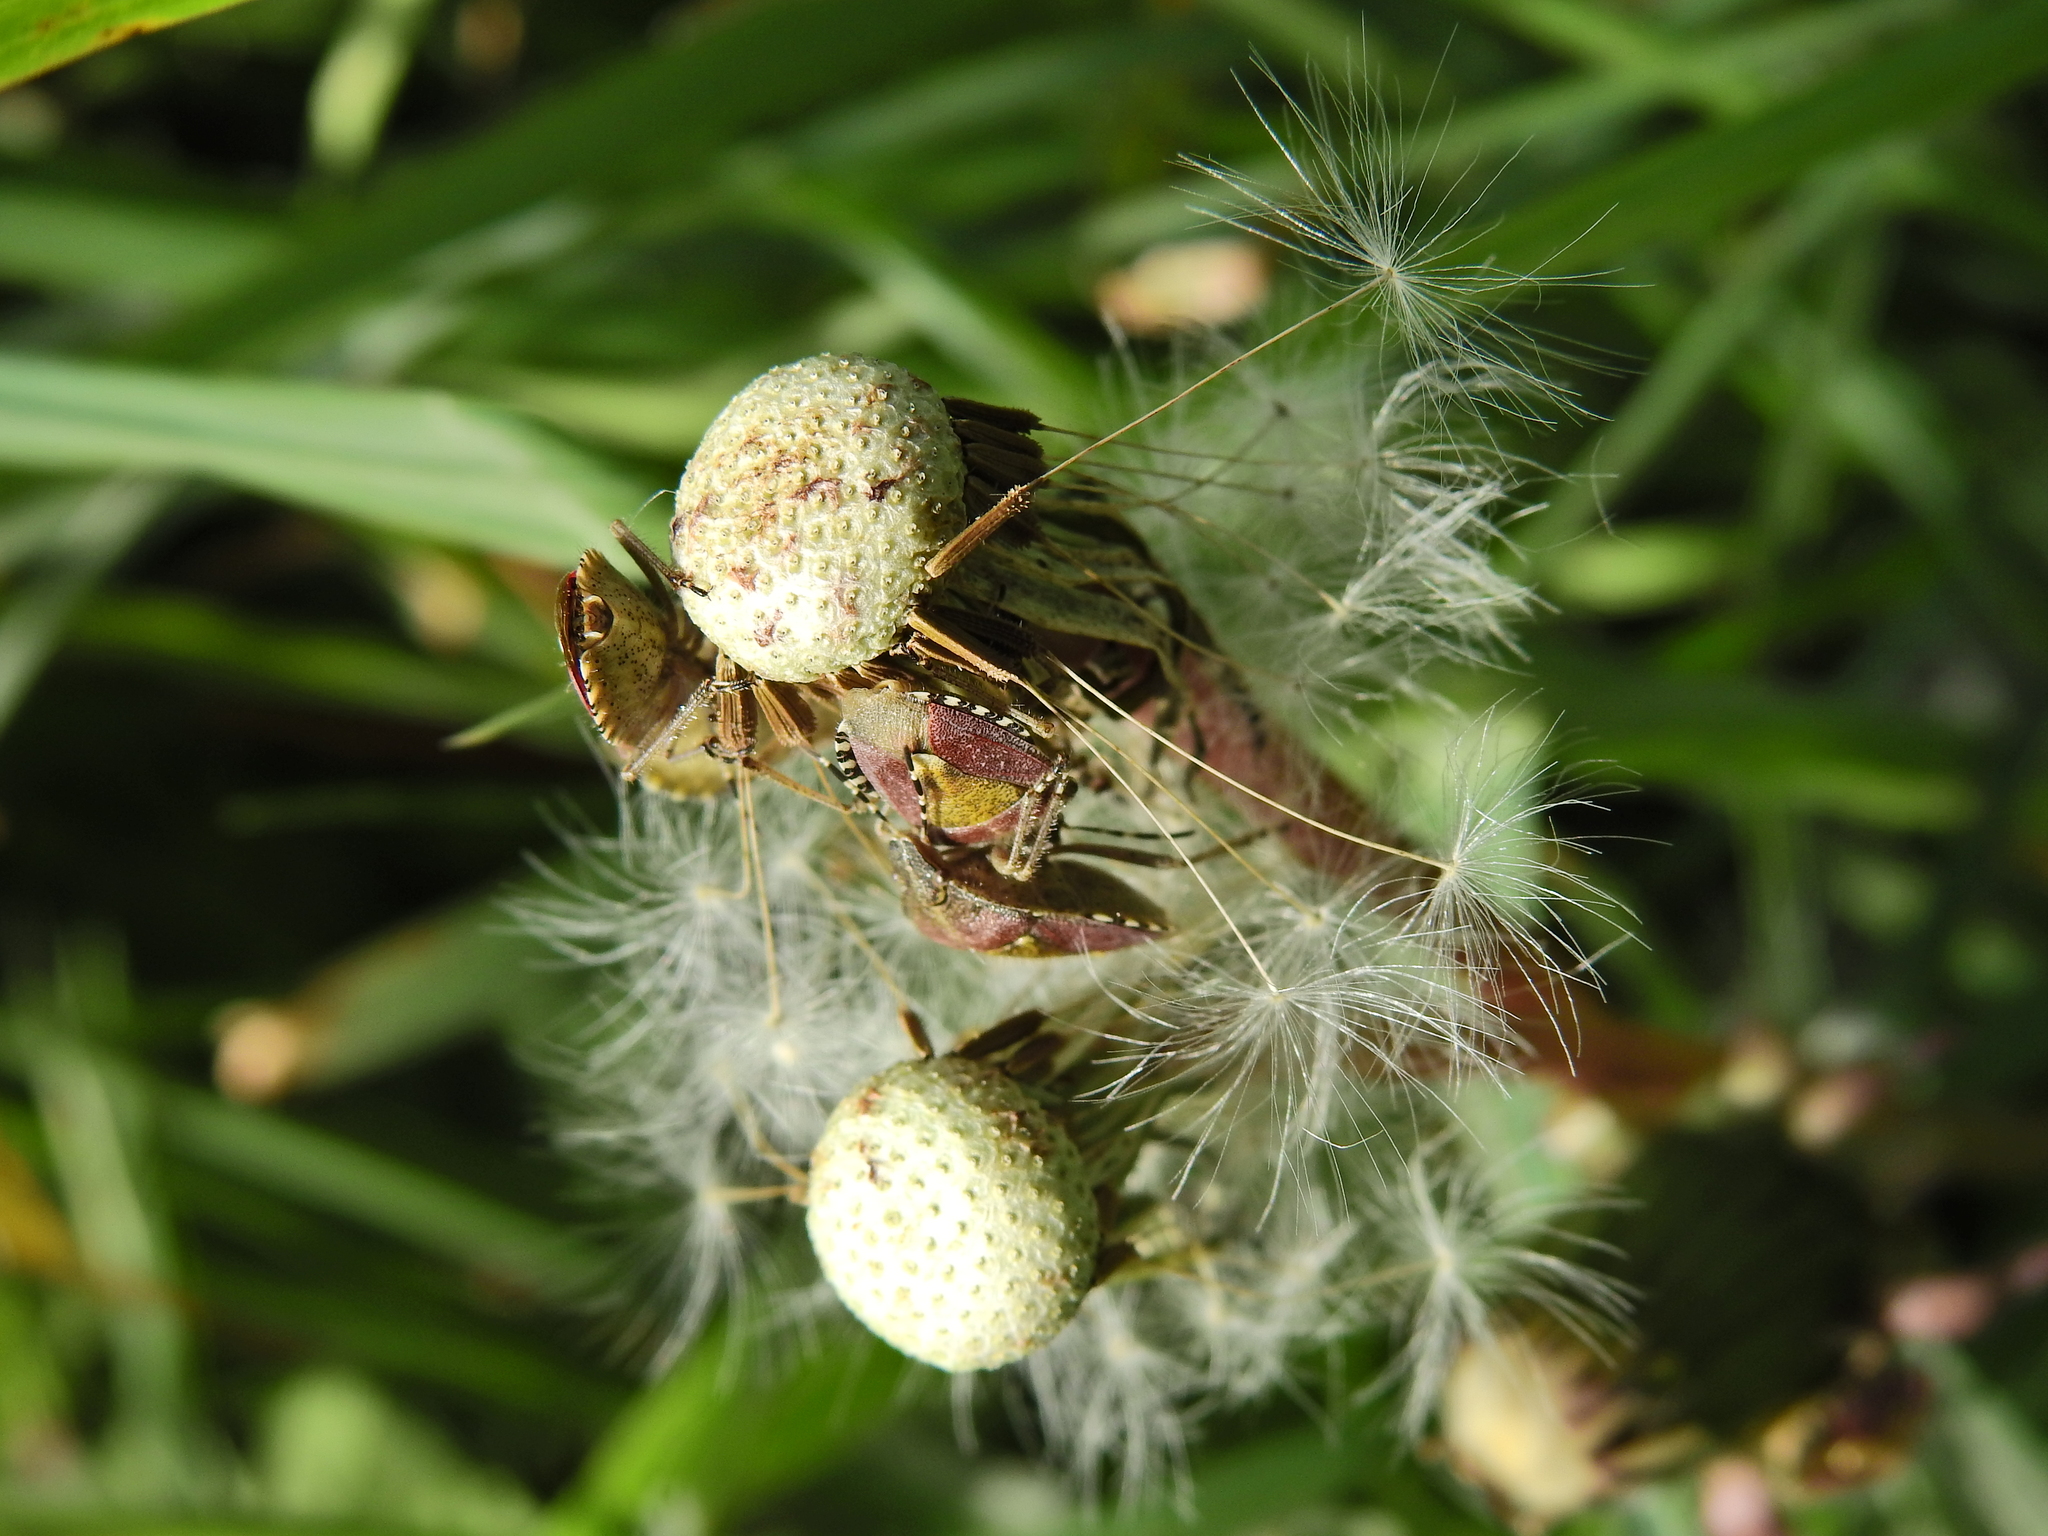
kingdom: Animalia
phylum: Arthropoda
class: Insecta
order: Hemiptera
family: Pentatomidae
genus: Dolycoris
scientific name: Dolycoris baccarum
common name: Sloe bug
